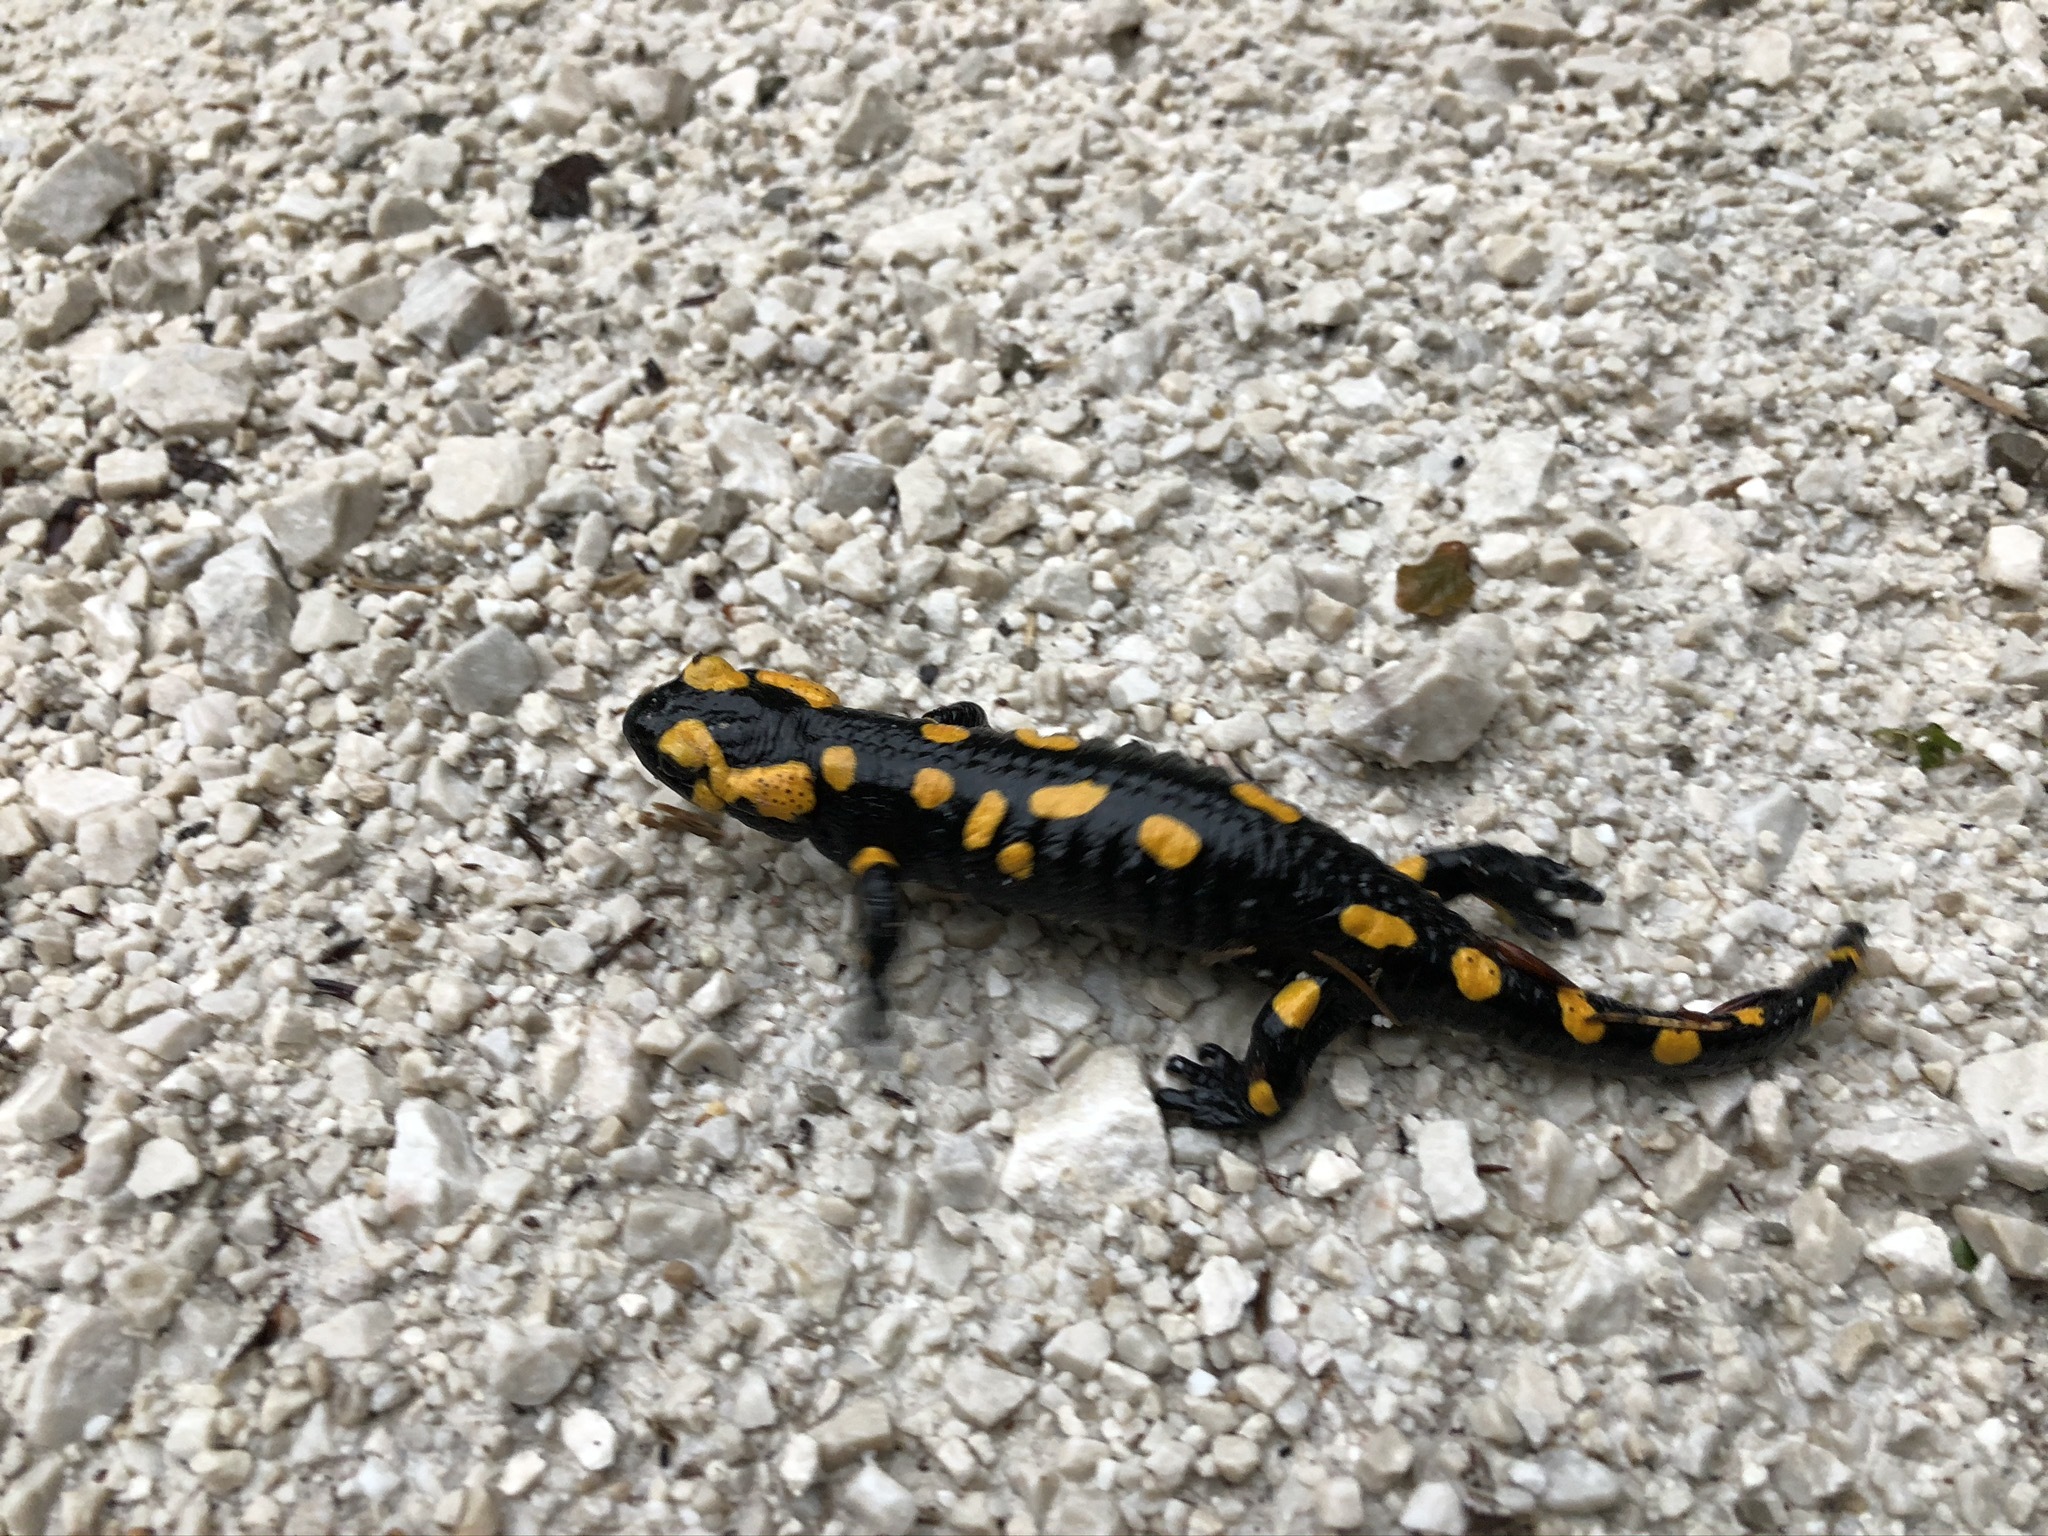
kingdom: Animalia
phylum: Chordata
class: Amphibia
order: Caudata
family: Salamandridae
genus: Salamandra
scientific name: Salamandra salamandra
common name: Fire salamander
